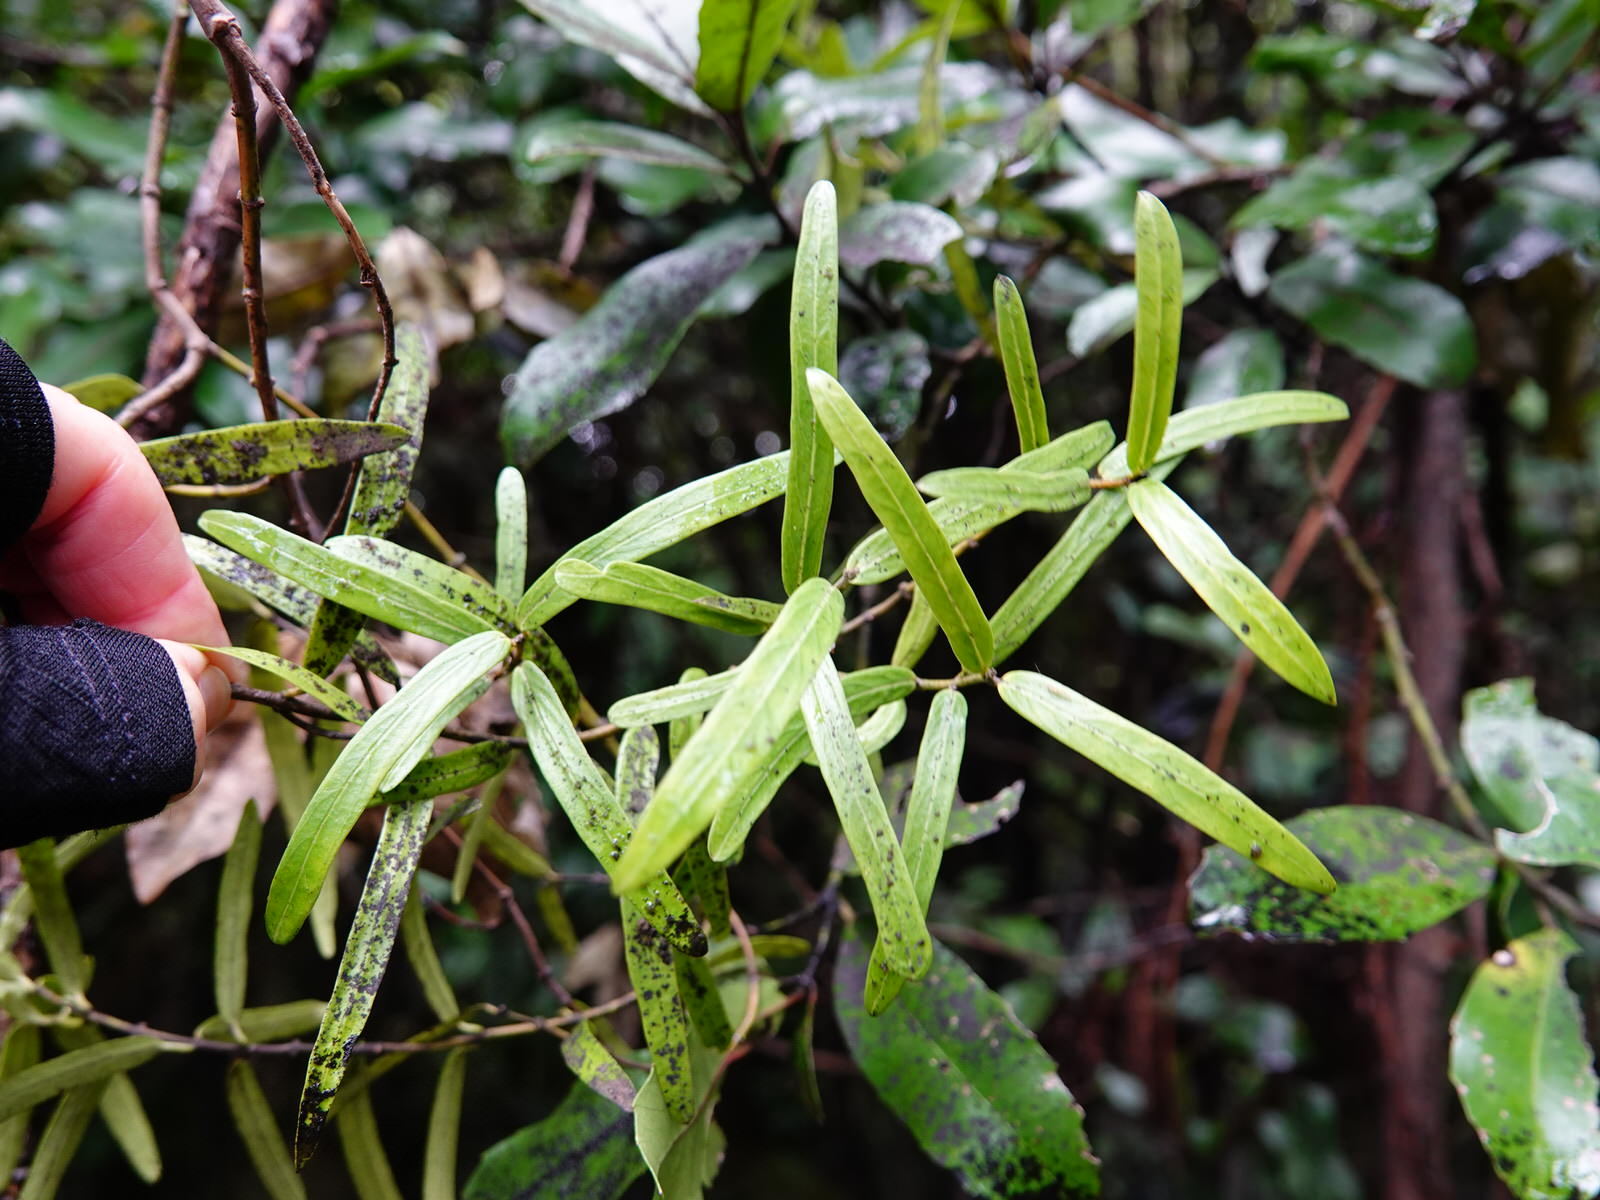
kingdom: Plantae
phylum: Tracheophyta
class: Magnoliopsida
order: Gentianales
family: Apocynaceae
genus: Parsonsia
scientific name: Parsonsia capsularis
